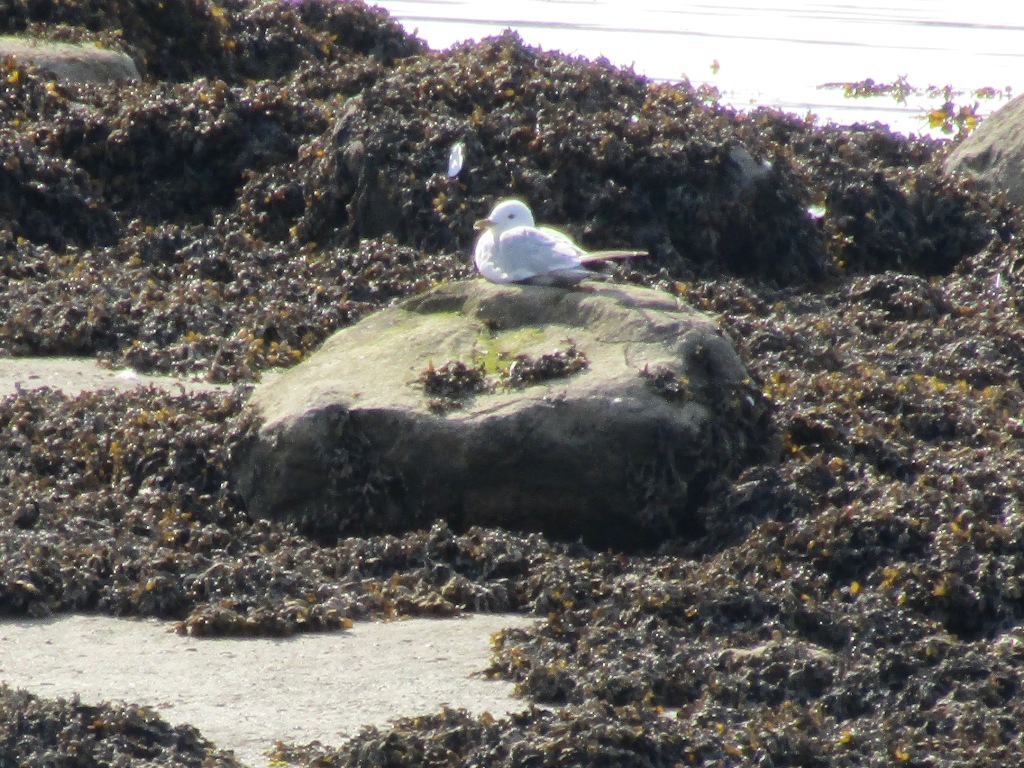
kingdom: Animalia
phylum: Chordata
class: Aves
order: Charadriiformes
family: Laridae
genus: Rissa
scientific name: Rissa tridactyla
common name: Black-legged kittiwake
